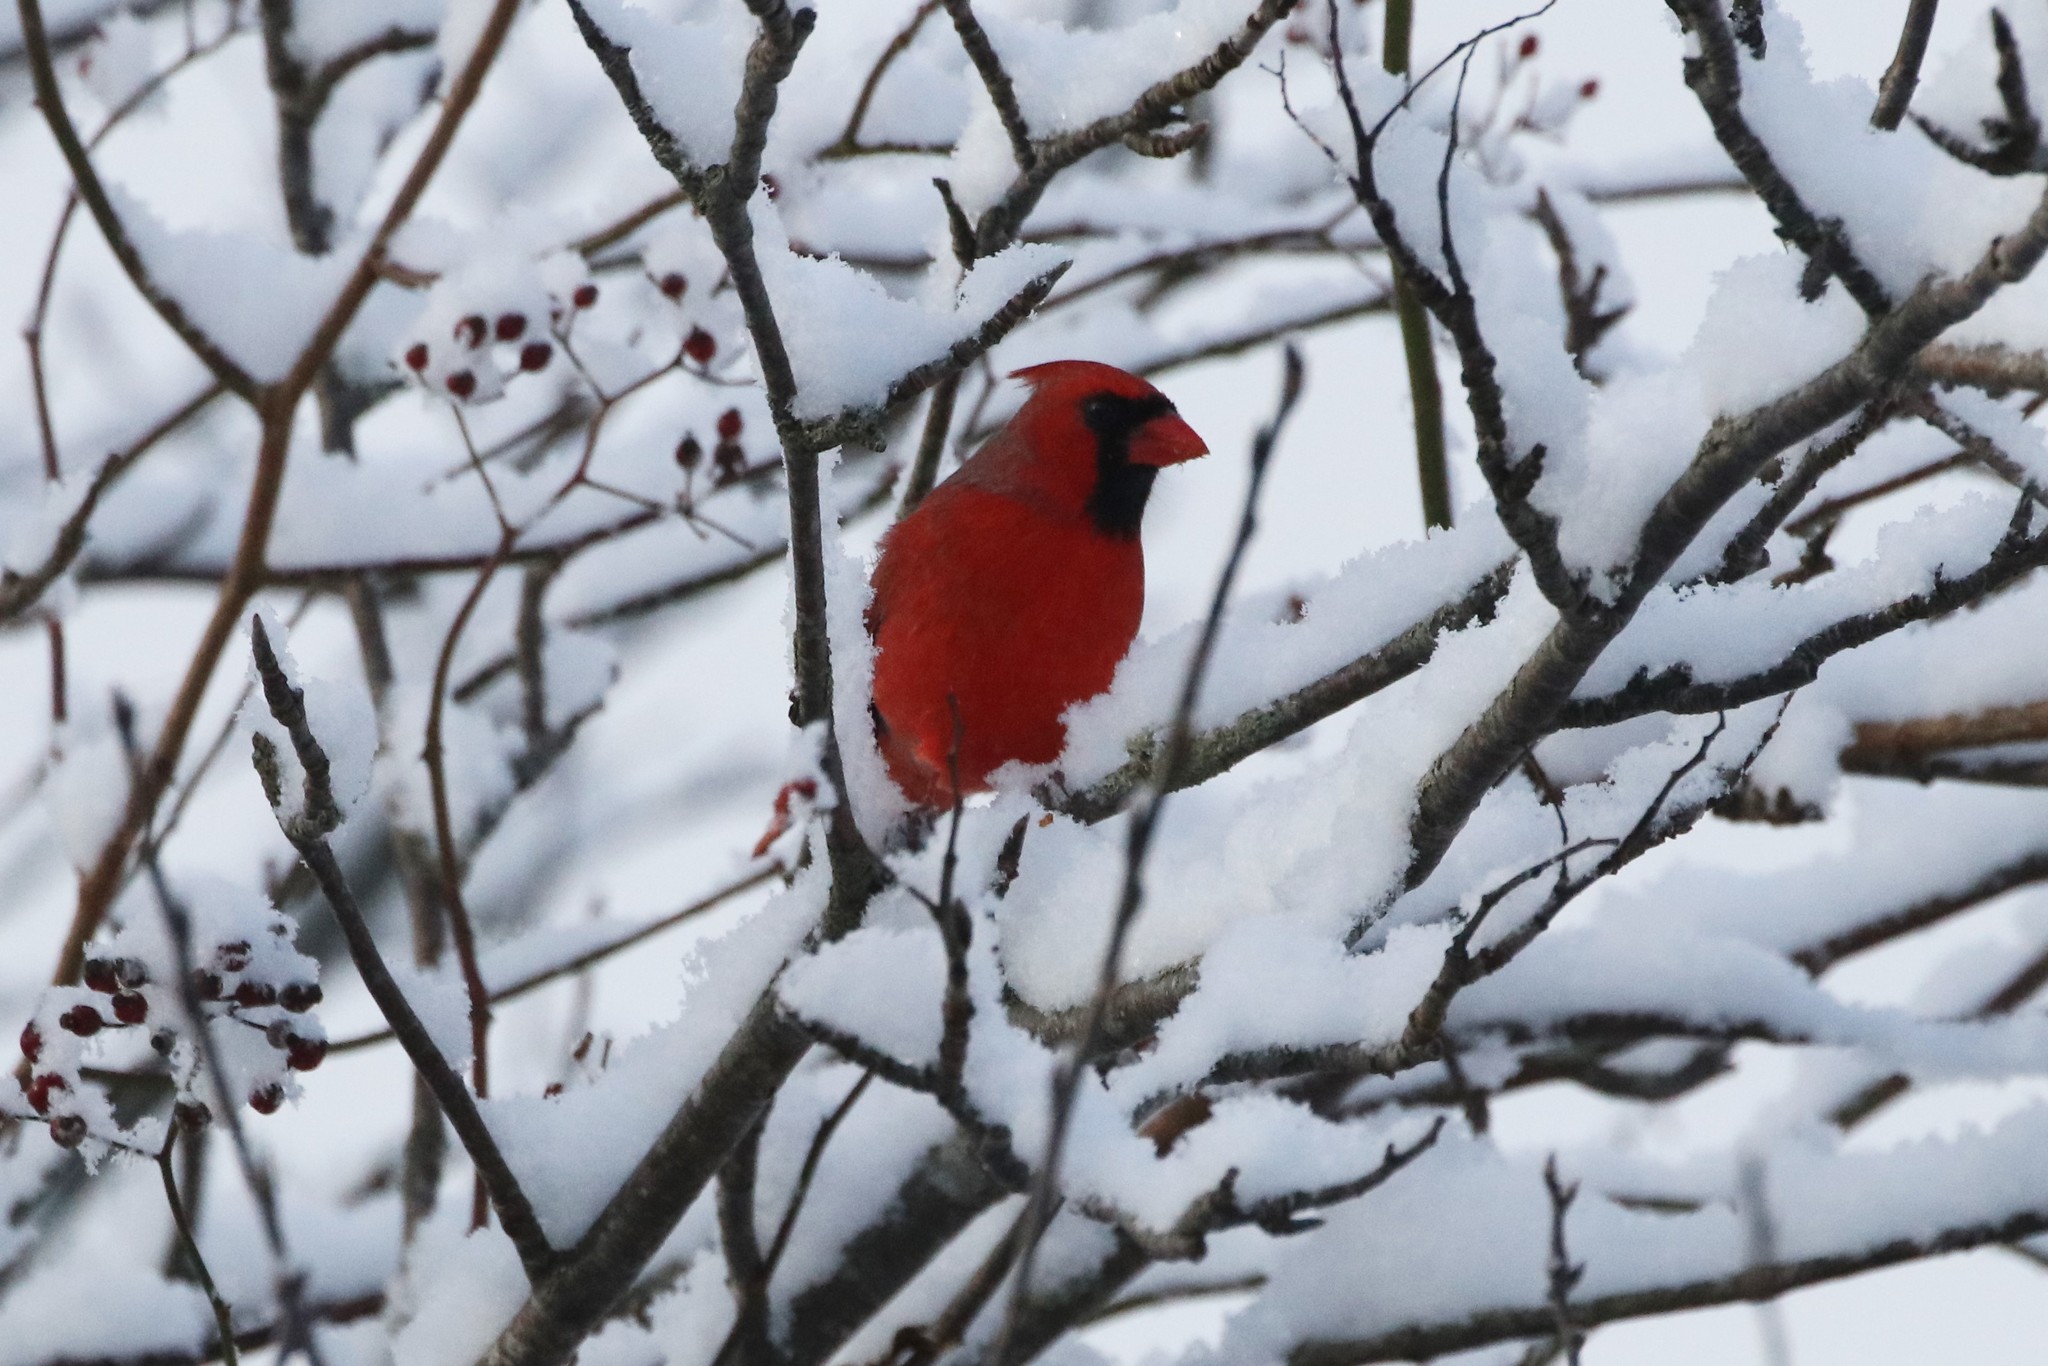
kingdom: Animalia
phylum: Chordata
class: Aves
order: Passeriformes
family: Cardinalidae
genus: Cardinalis
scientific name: Cardinalis cardinalis
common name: Northern cardinal
